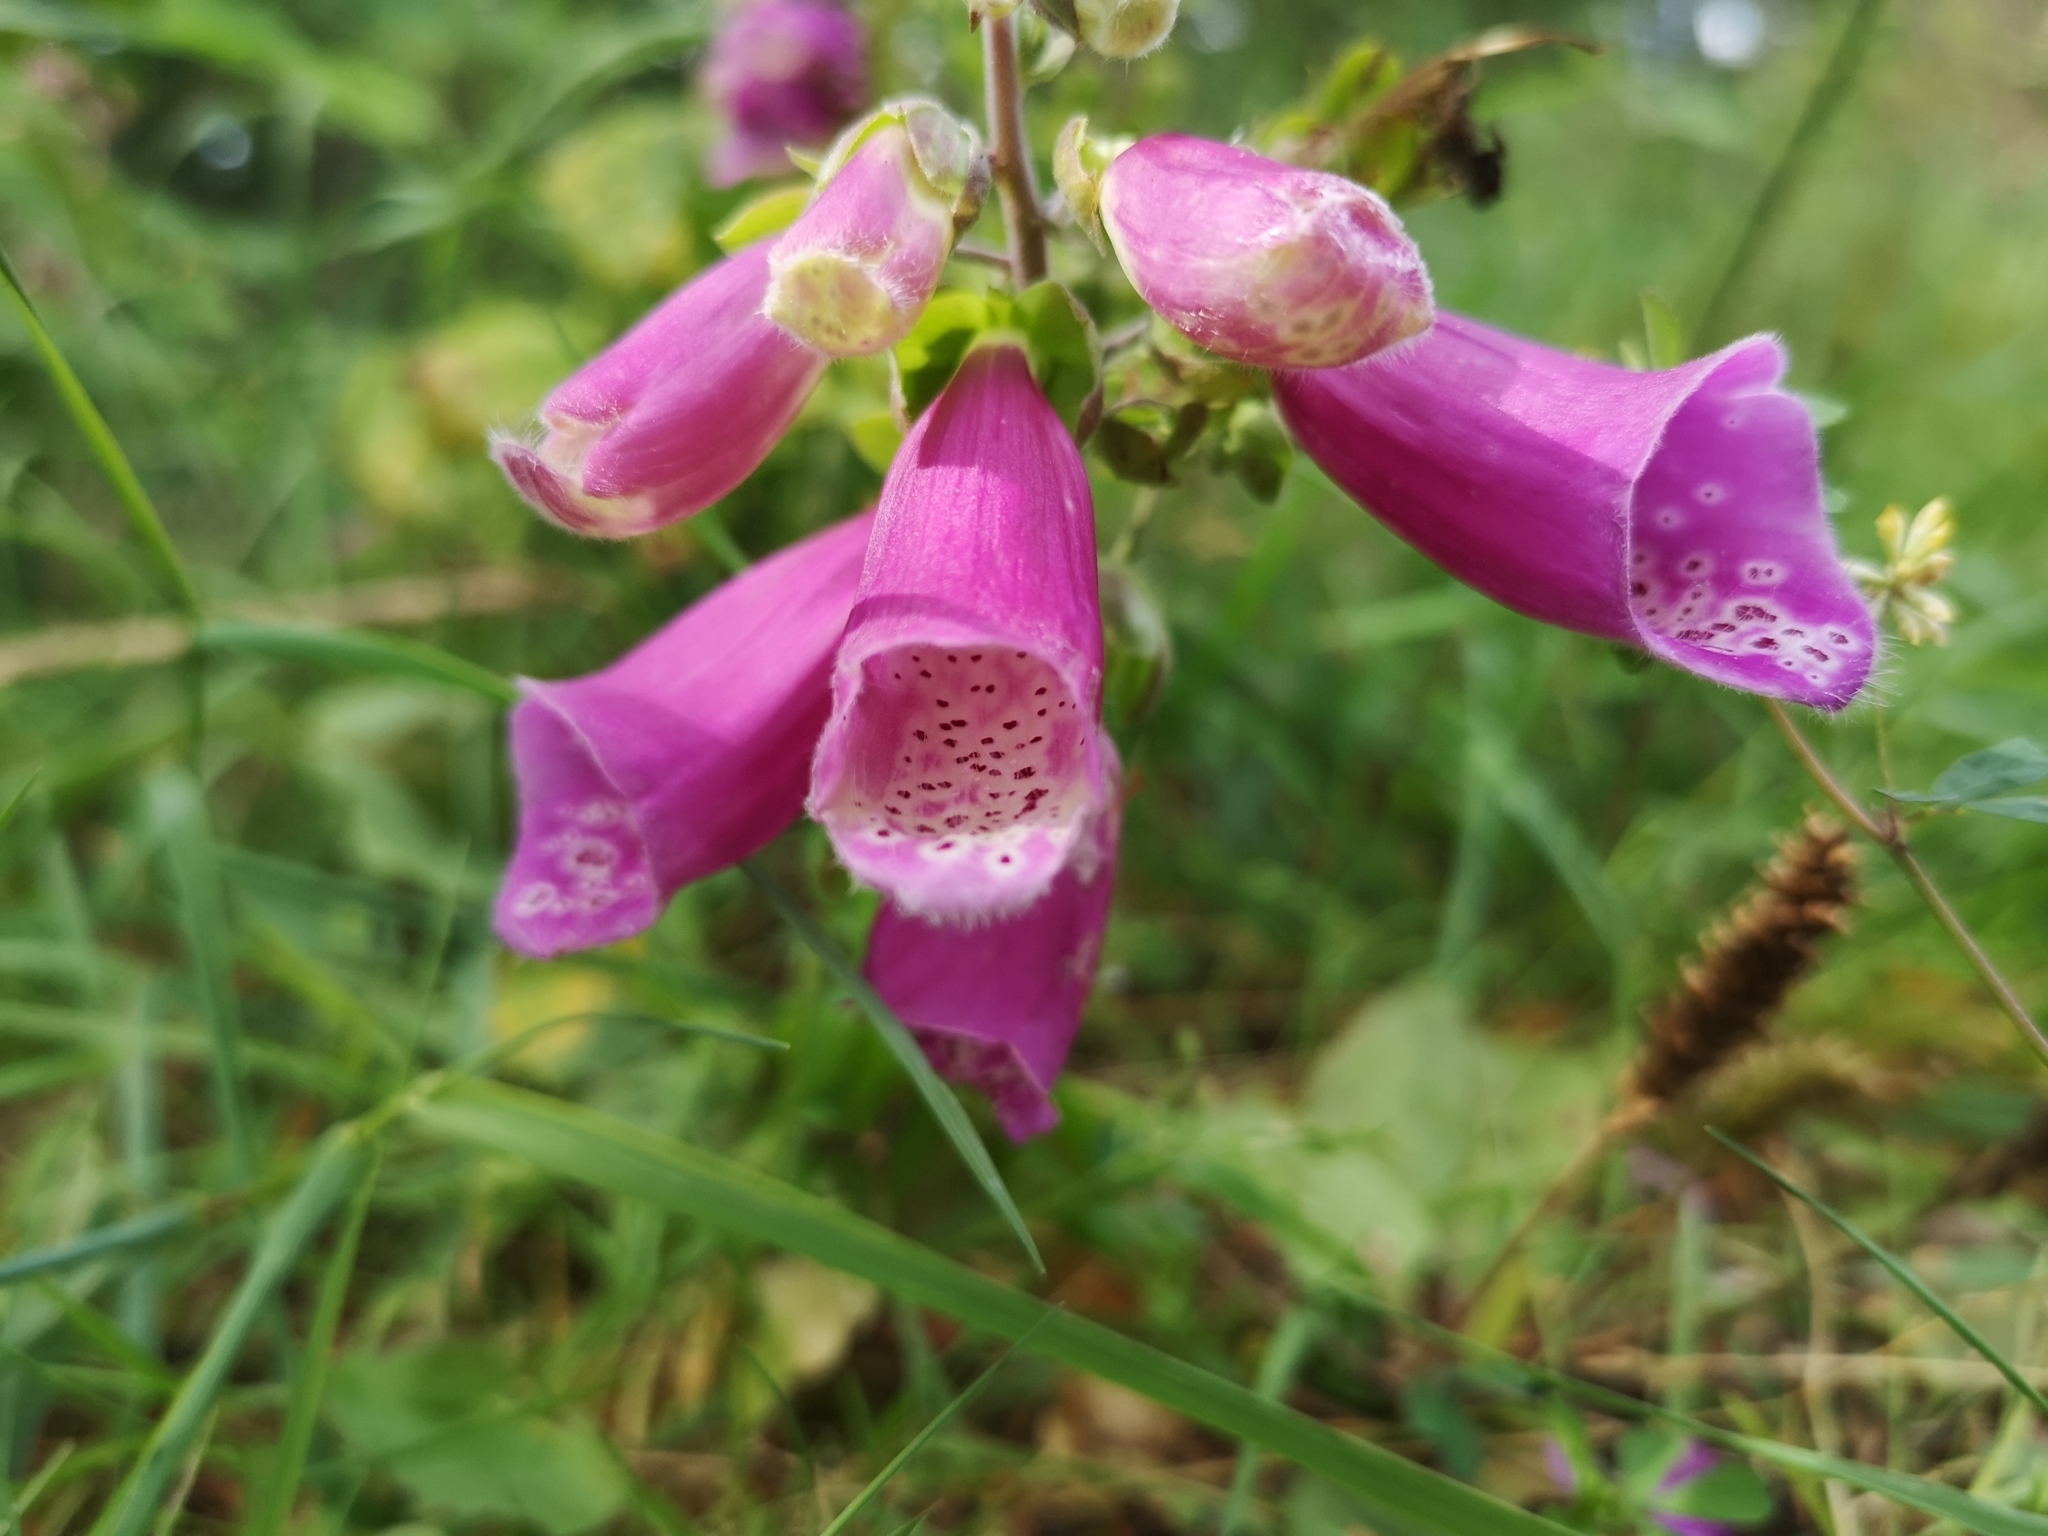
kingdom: Plantae
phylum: Tracheophyta
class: Magnoliopsida
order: Lamiales
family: Plantaginaceae
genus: Digitalis
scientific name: Digitalis purpurea
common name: Foxglove
